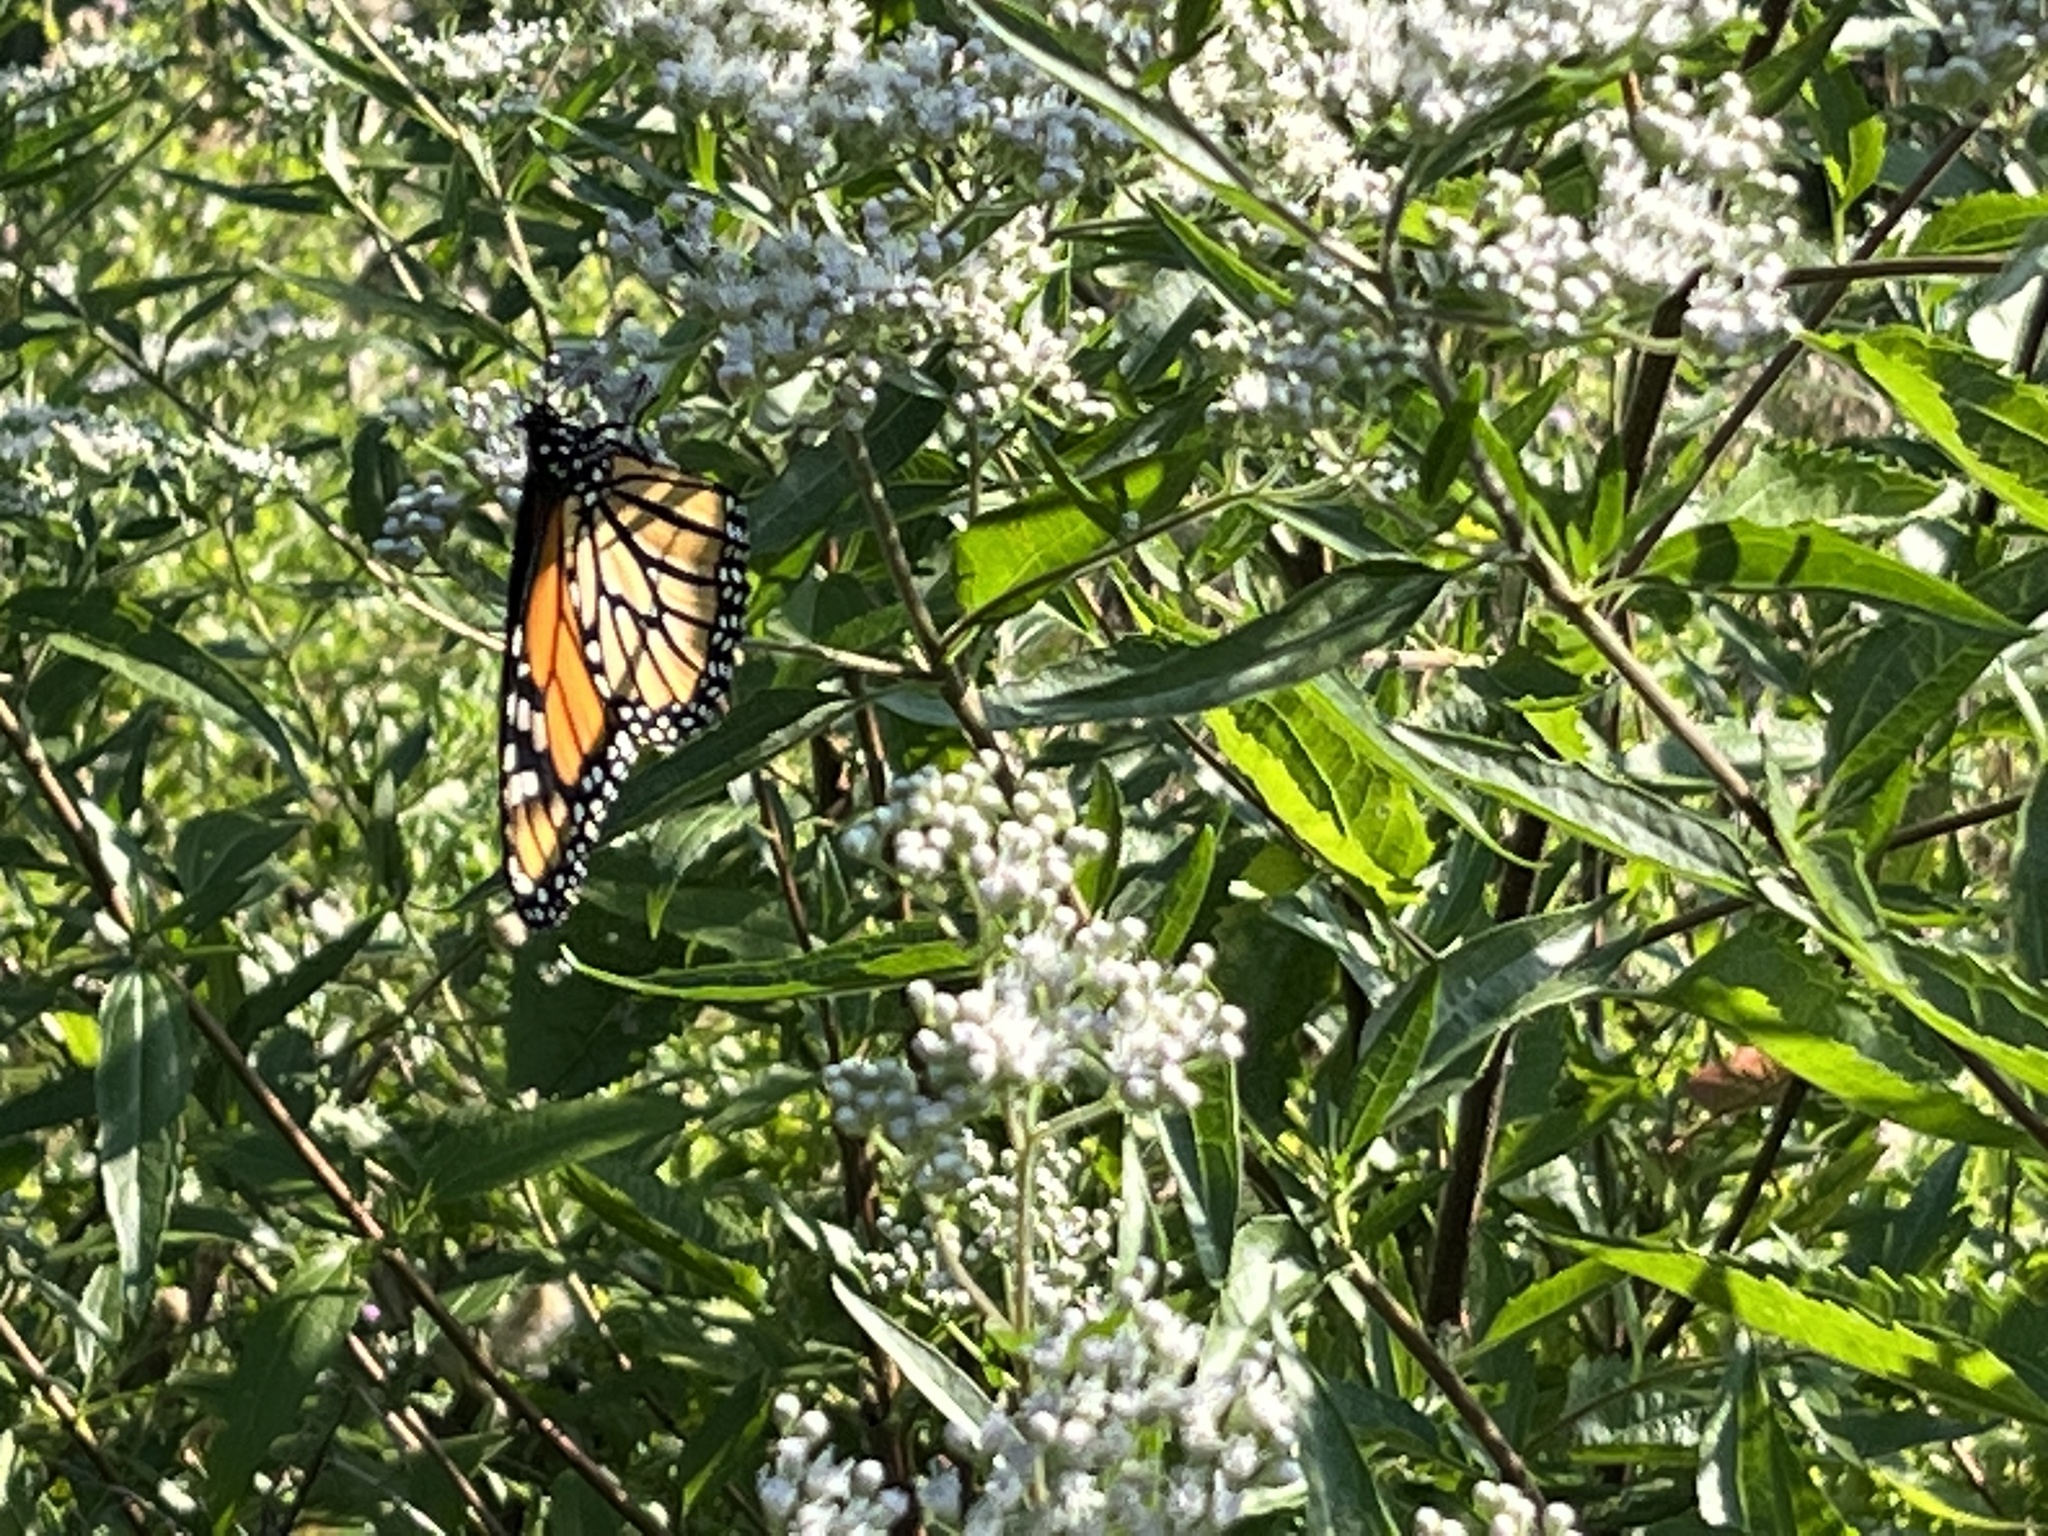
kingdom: Animalia
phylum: Arthropoda
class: Insecta
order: Lepidoptera
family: Nymphalidae
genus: Danaus
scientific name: Danaus plexippus
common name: Monarch
